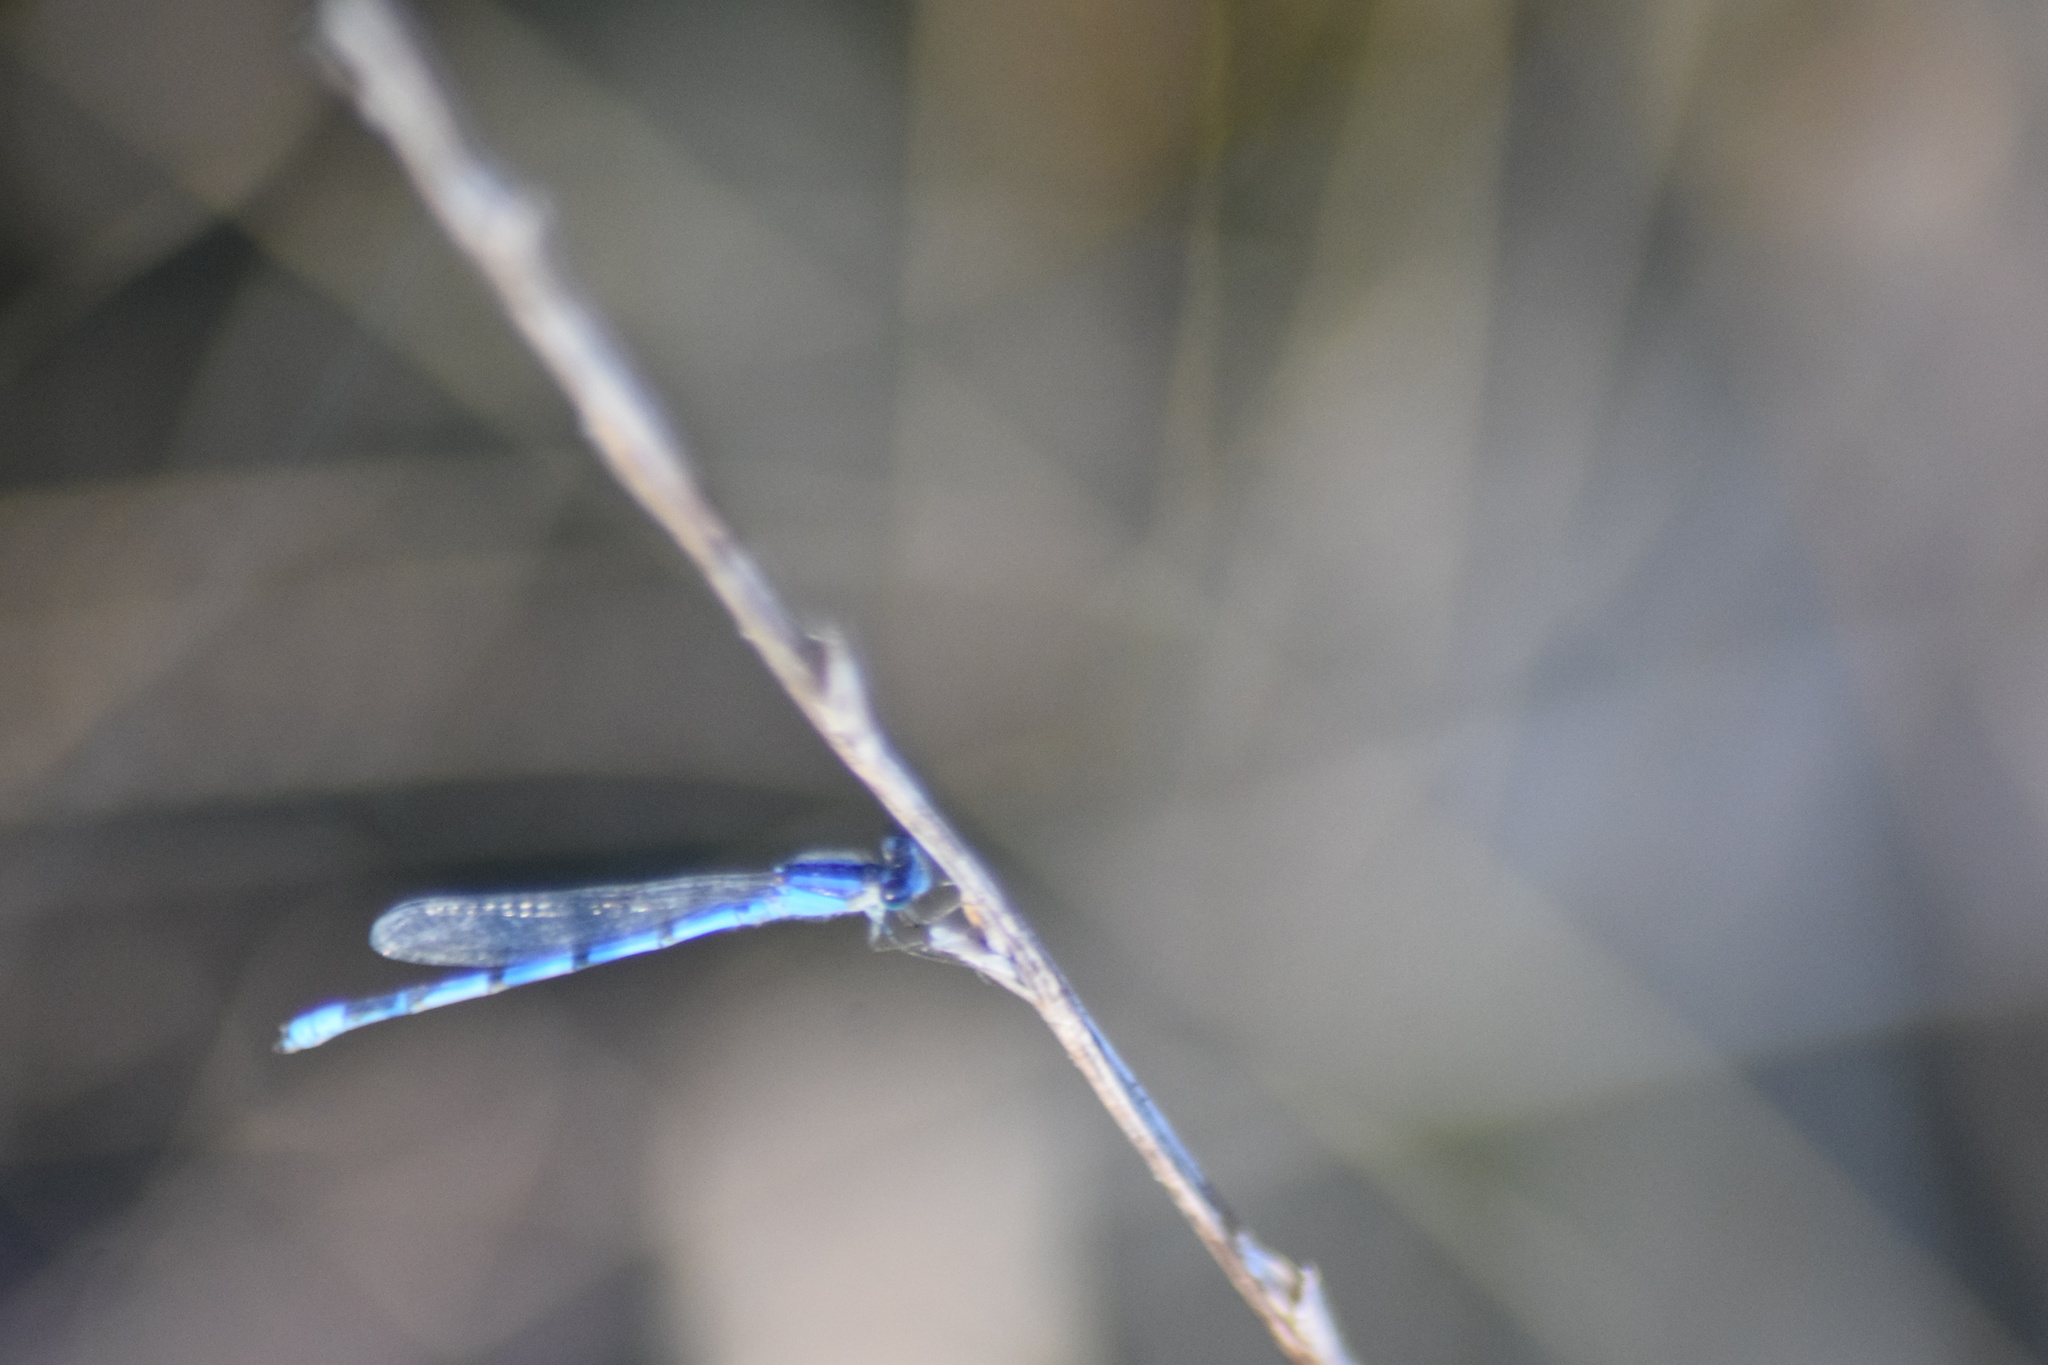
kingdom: Animalia
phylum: Arthropoda
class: Insecta
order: Odonata
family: Coenagrionidae
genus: Enallagma
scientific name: Enallagma civile
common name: Damselfly
